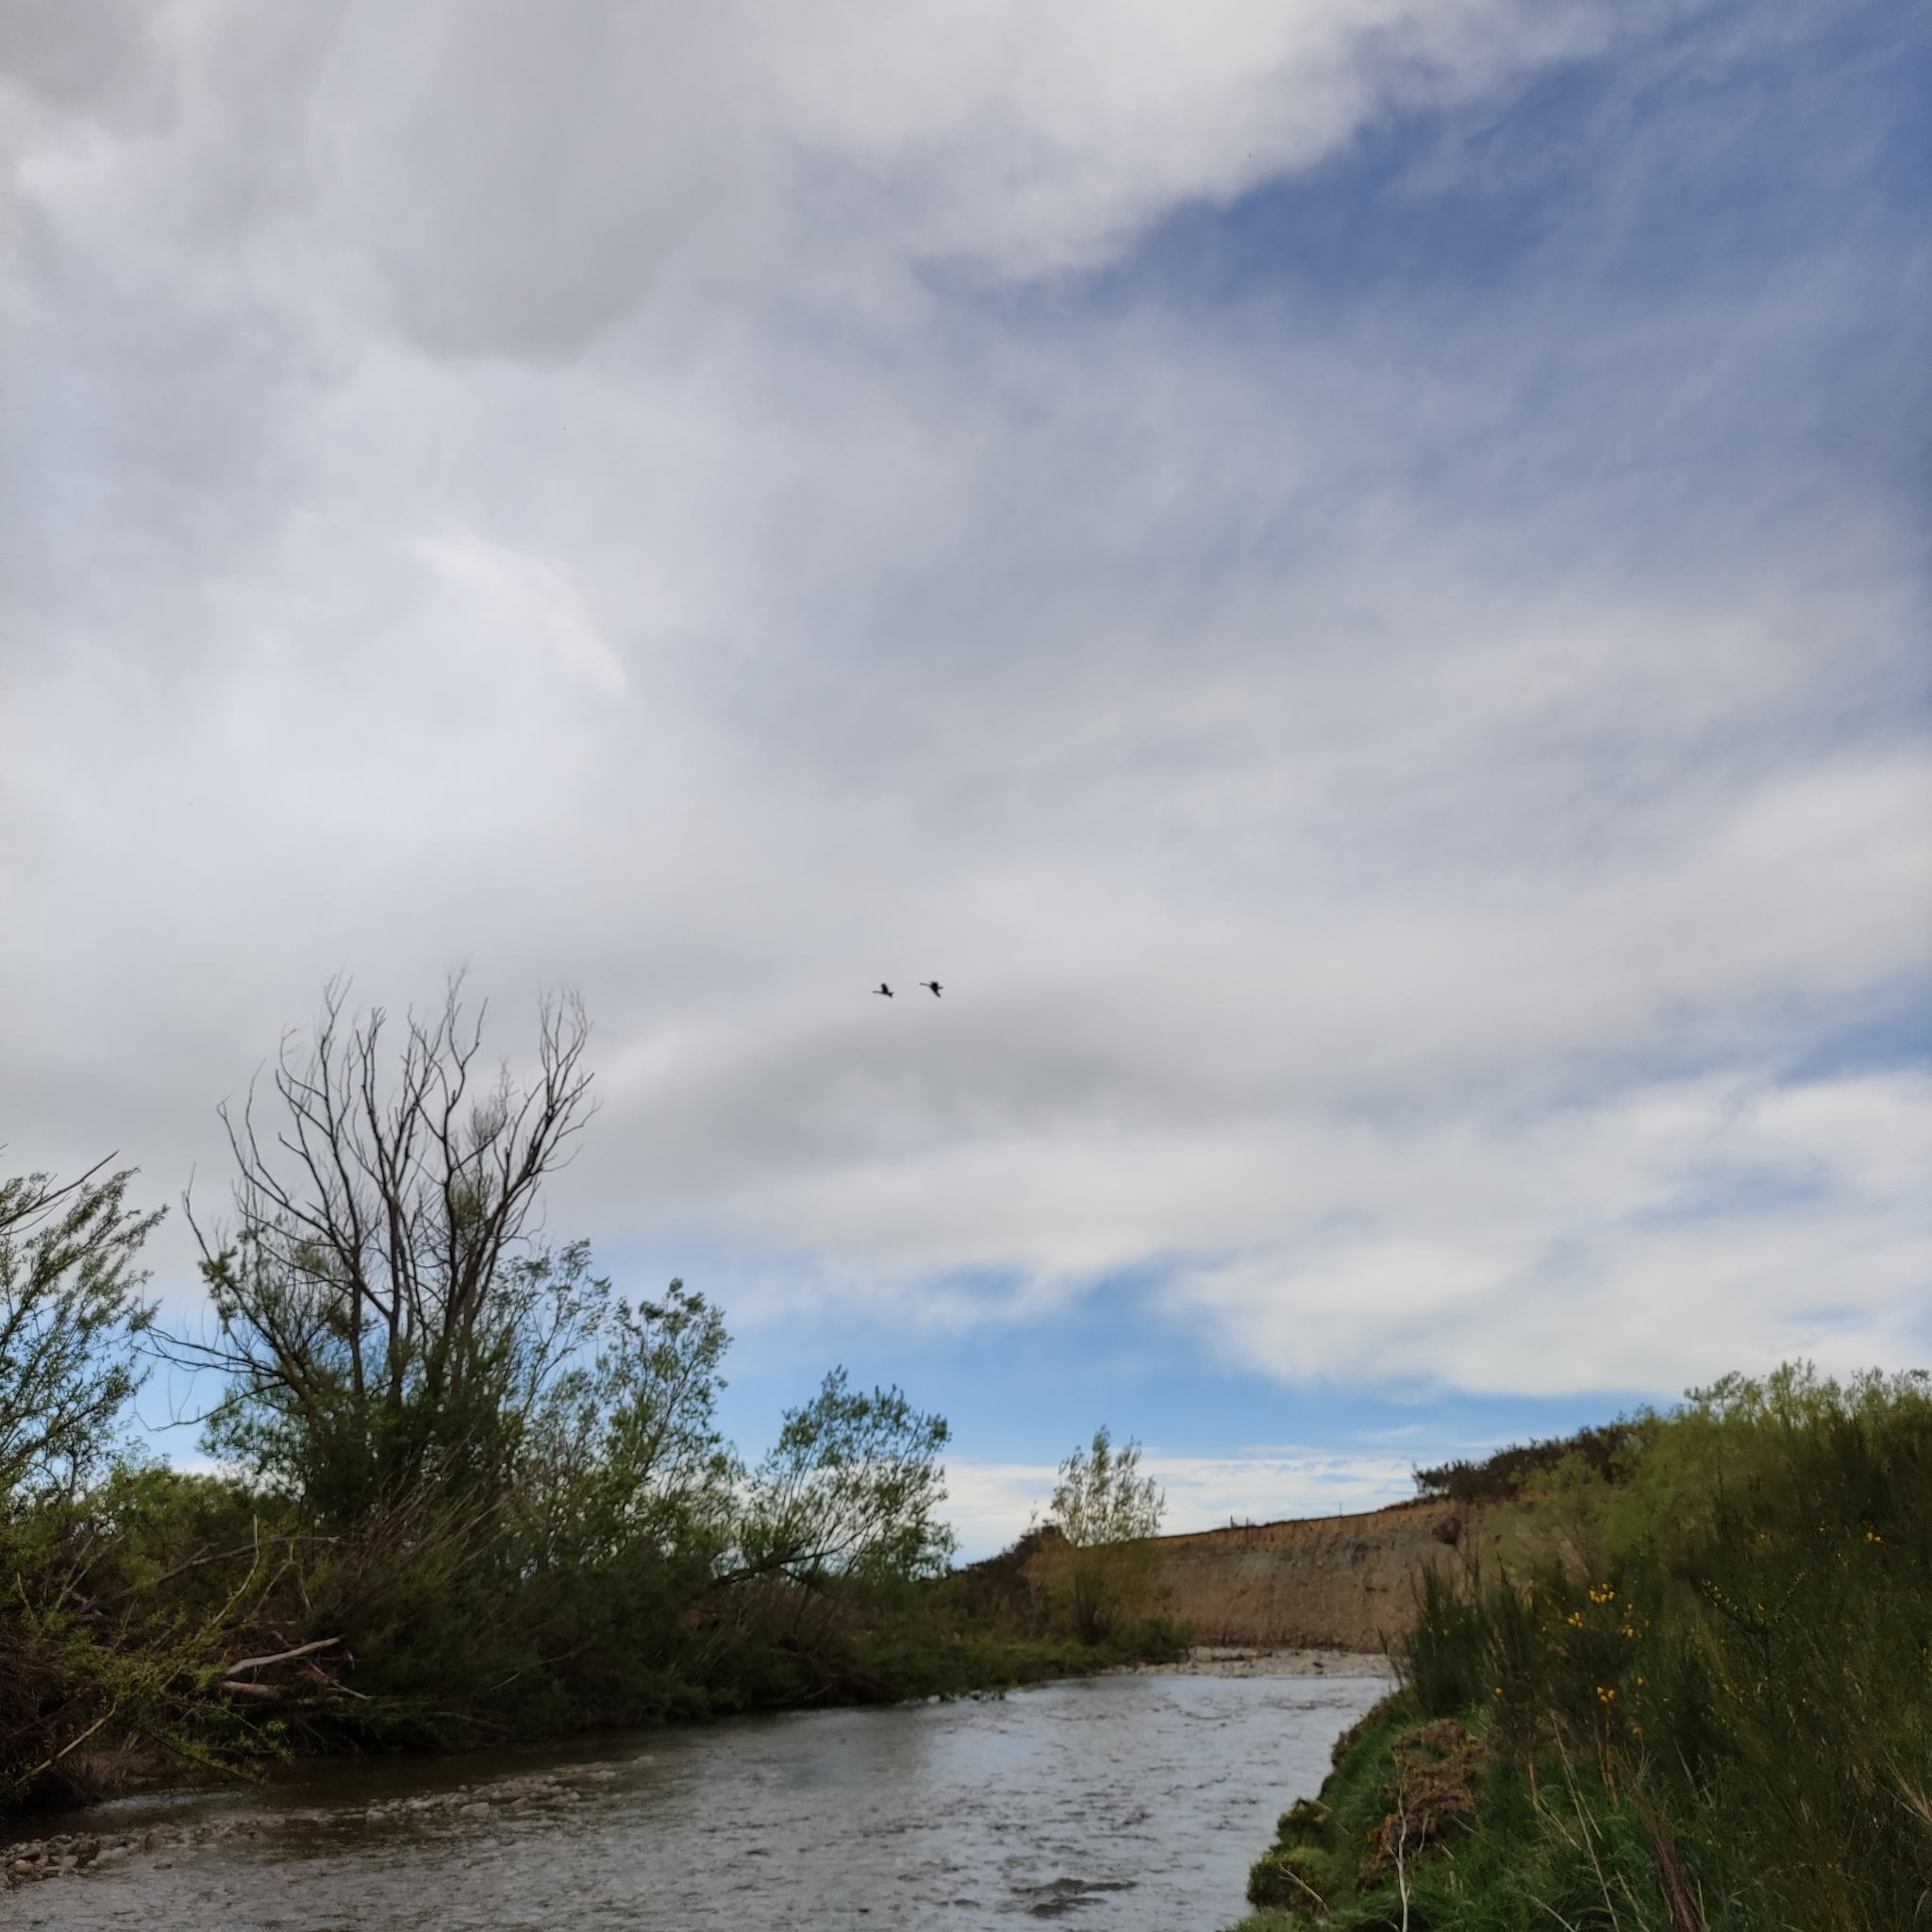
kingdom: Animalia
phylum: Chordata
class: Aves
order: Anseriformes
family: Anatidae
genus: Branta
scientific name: Branta canadensis
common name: Canada goose
